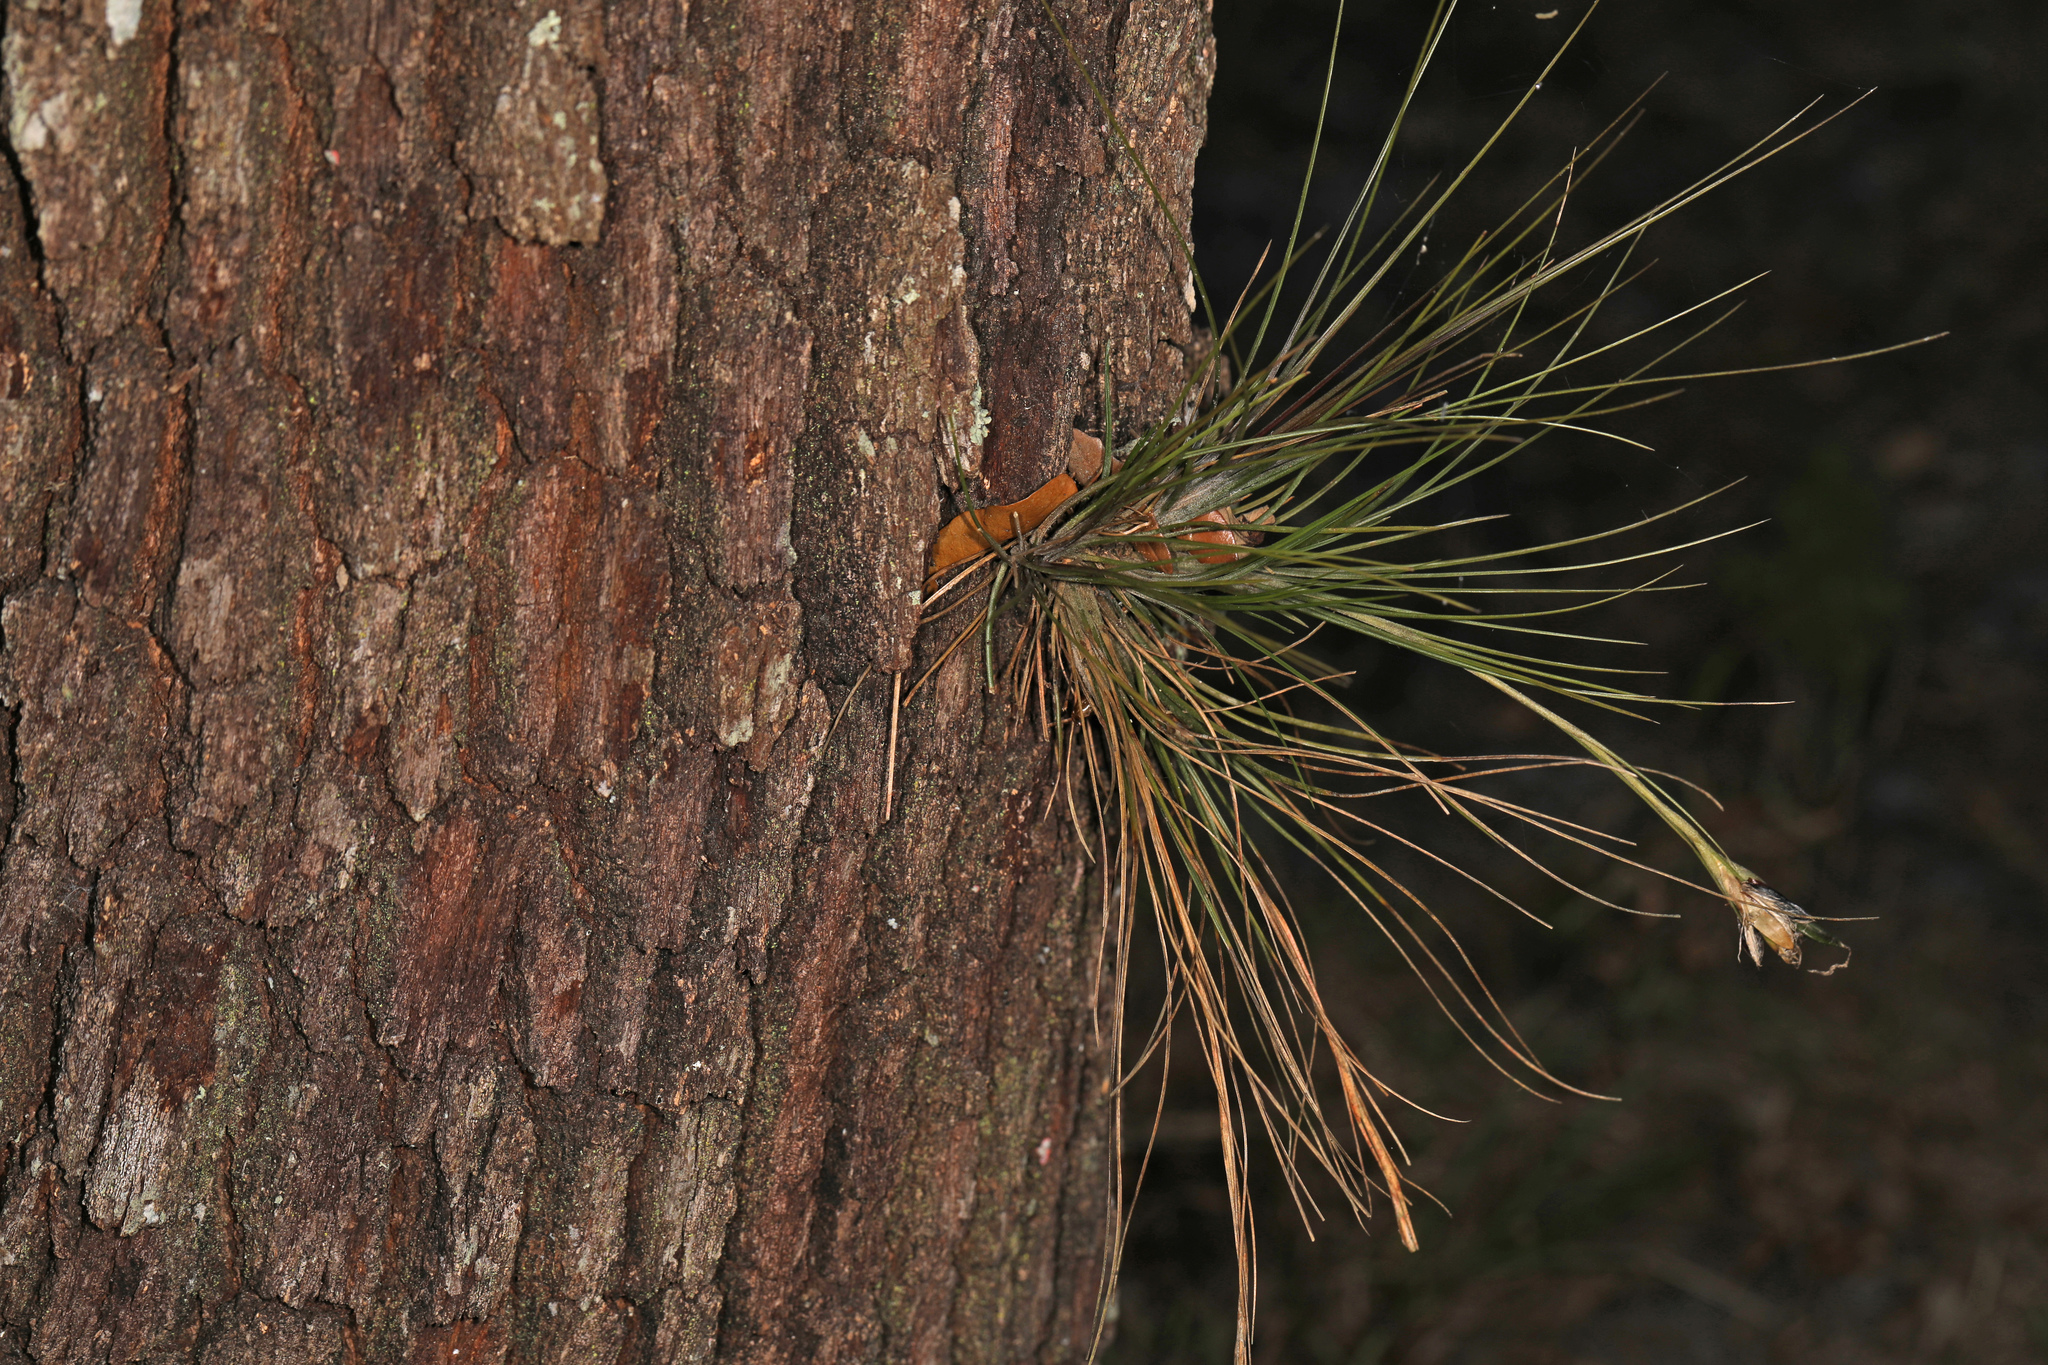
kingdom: Plantae
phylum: Tracheophyta
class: Liliopsida
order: Poales
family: Bromeliaceae
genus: Tillandsia
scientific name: Tillandsia setacea
